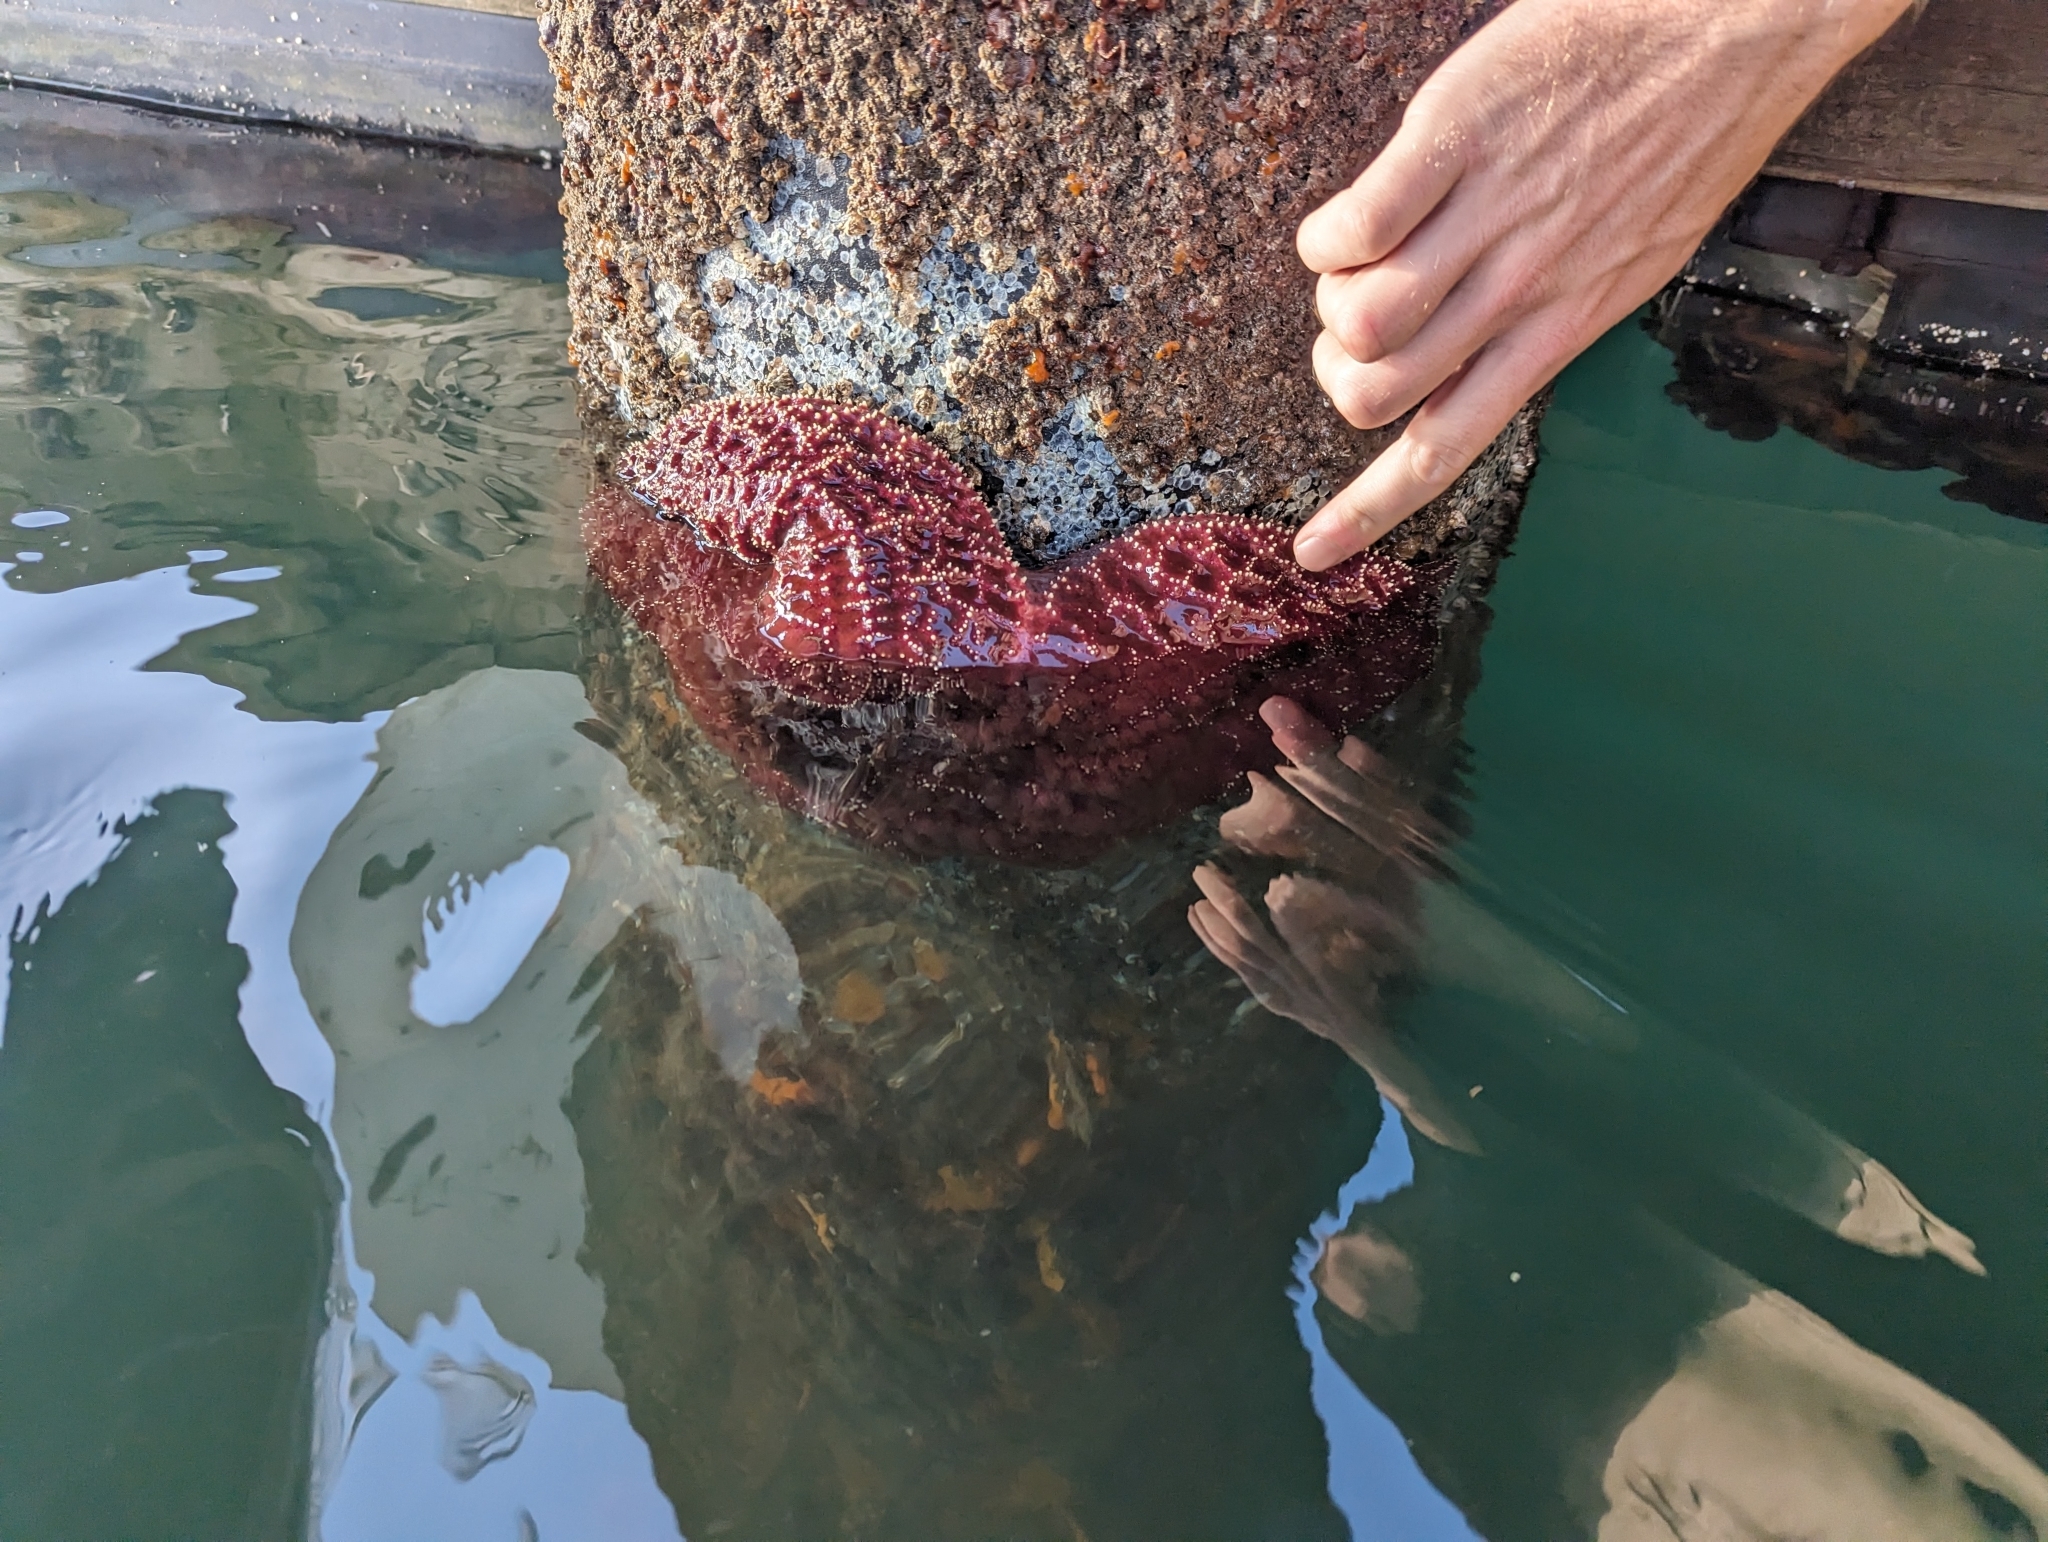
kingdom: Animalia
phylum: Echinodermata
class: Asteroidea
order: Forcipulatida
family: Asteriidae
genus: Pisaster
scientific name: Pisaster ochraceus
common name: Ochre stars
